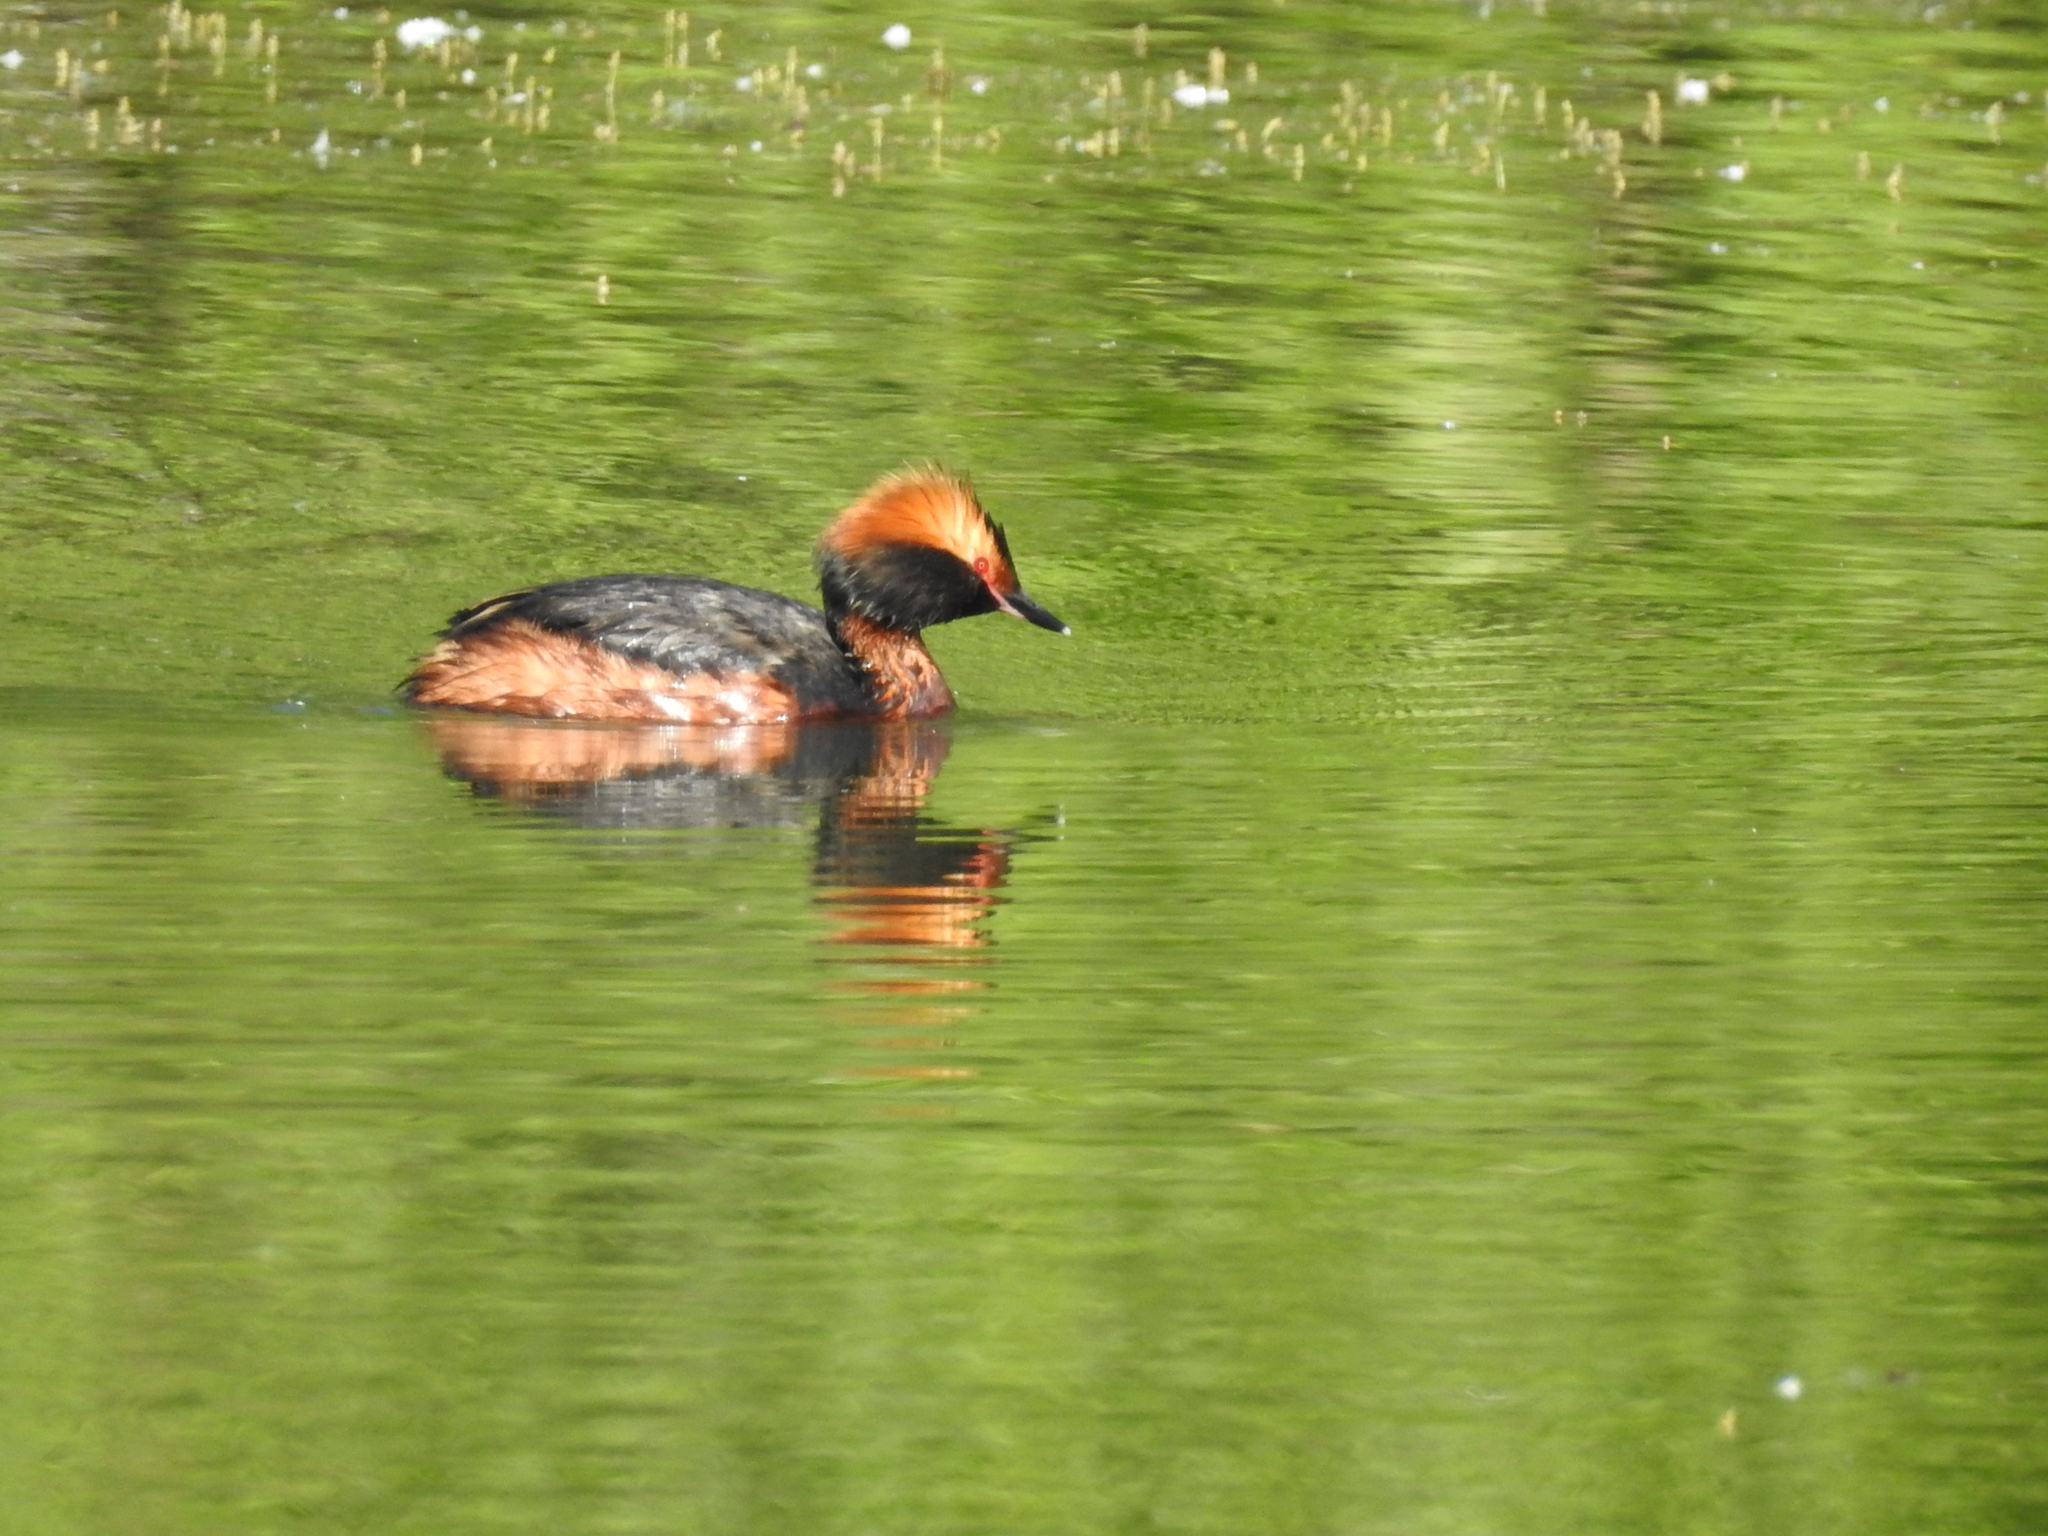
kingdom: Animalia
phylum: Chordata
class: Aves
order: Podicipediformes
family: Podicipedidae
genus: Podiceps
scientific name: Podiceps auritus
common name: Horned grebe
